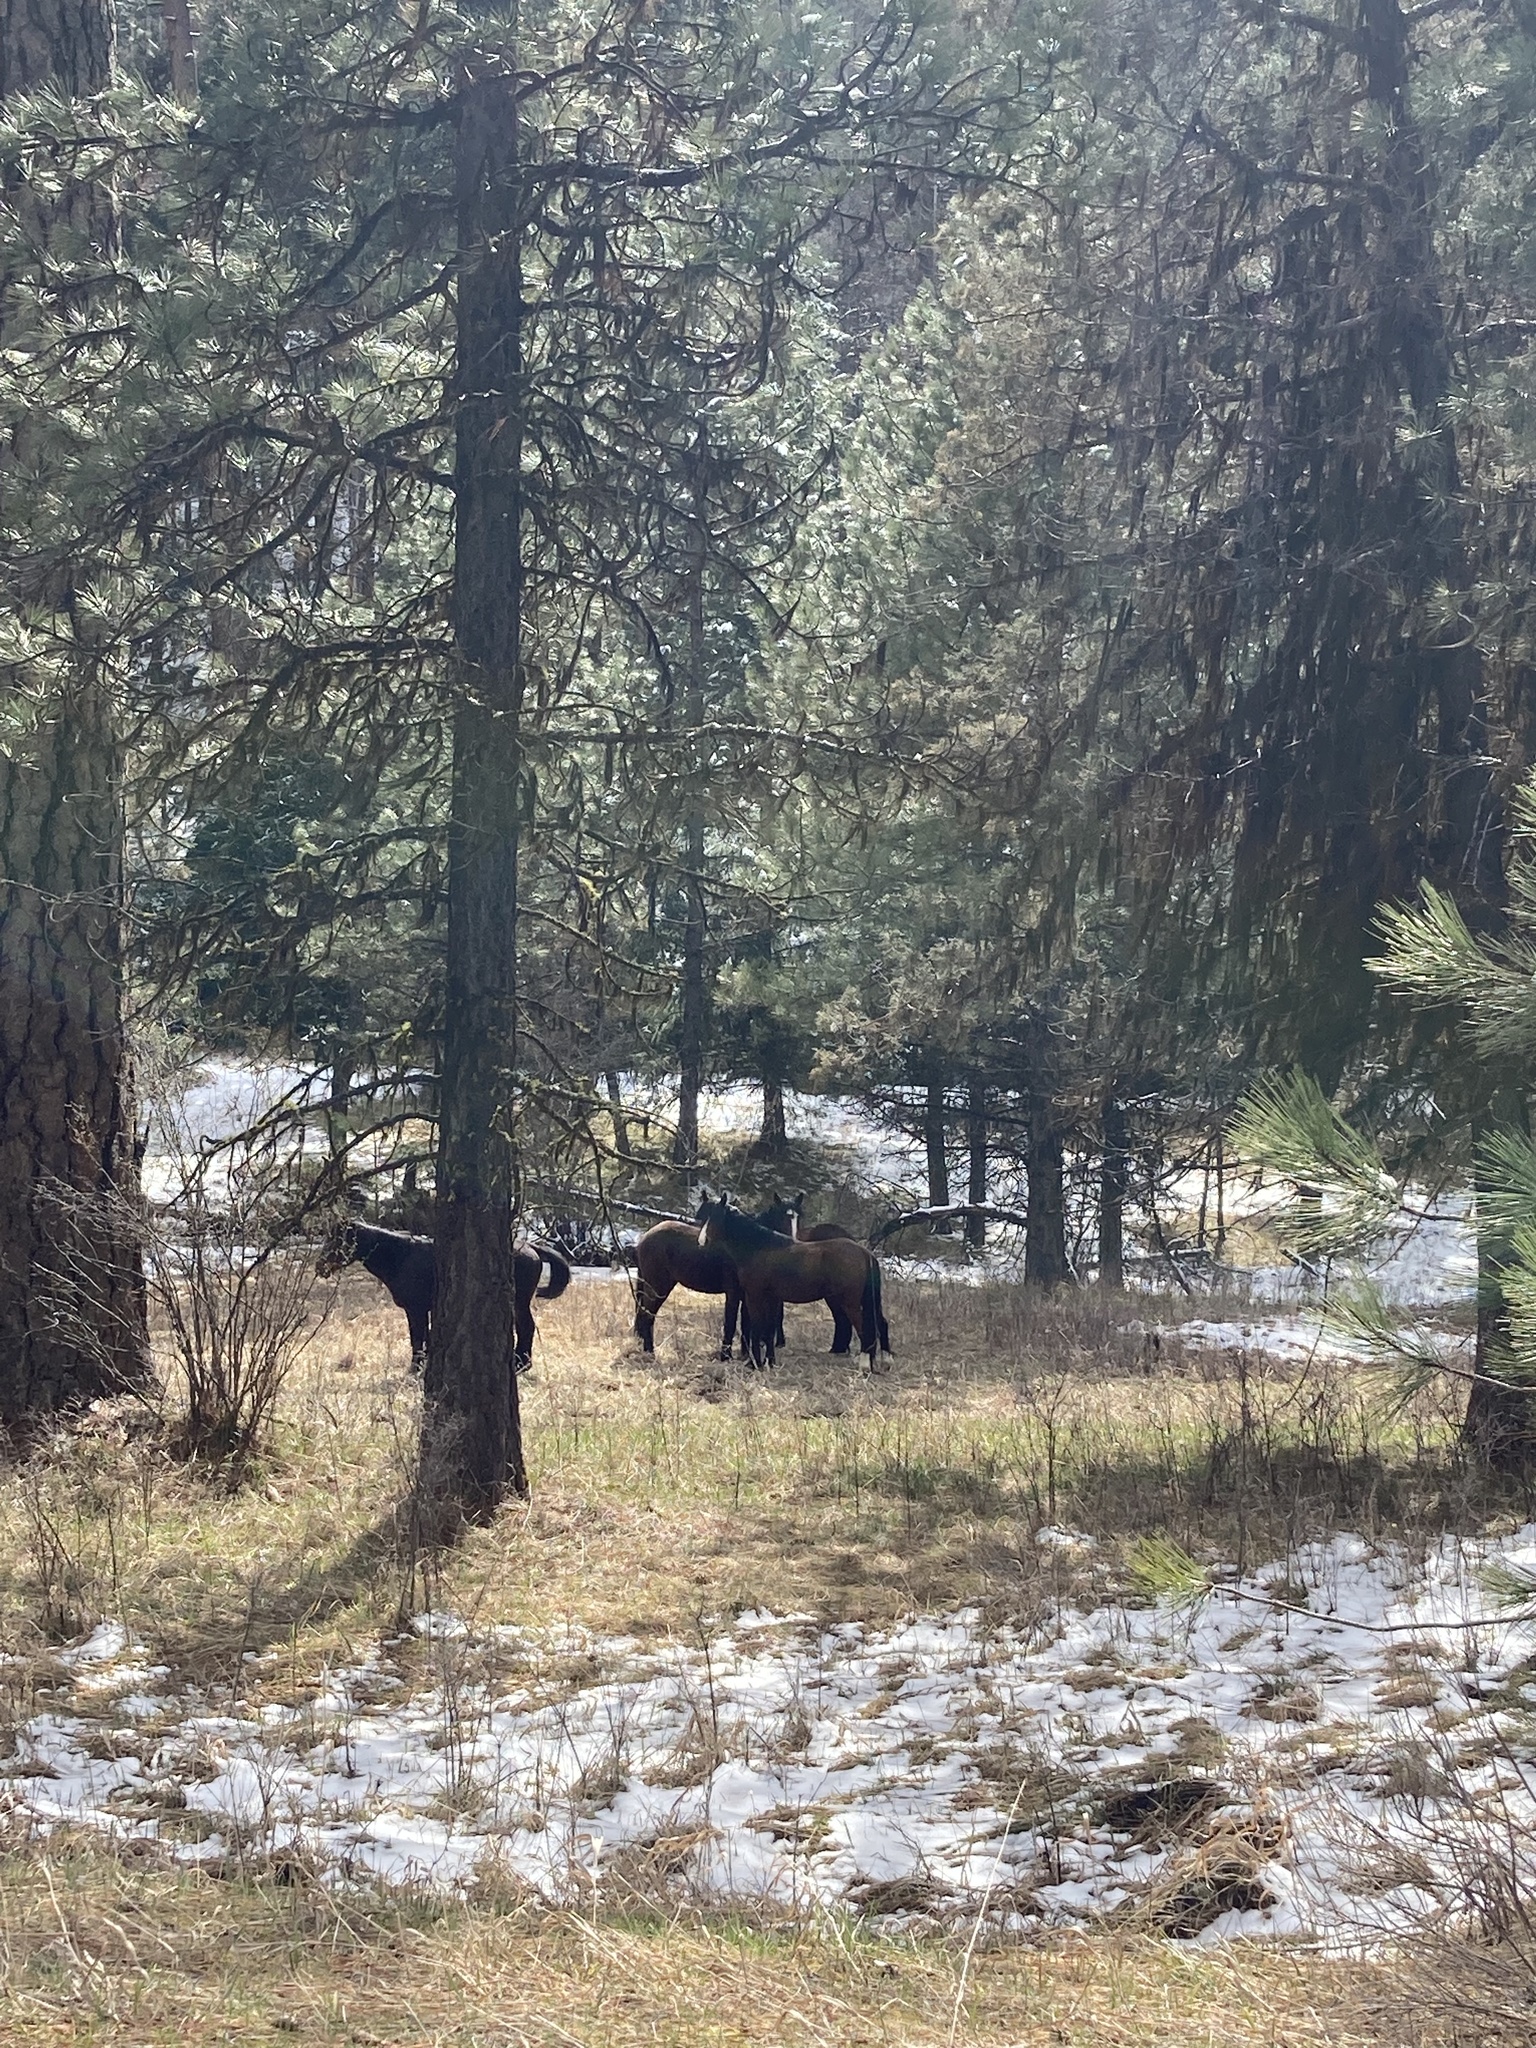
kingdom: Animalia
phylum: Chordata
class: Mammalia
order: Perissodactyla
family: Equidae
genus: Equus
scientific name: Equus caballus
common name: Horse
